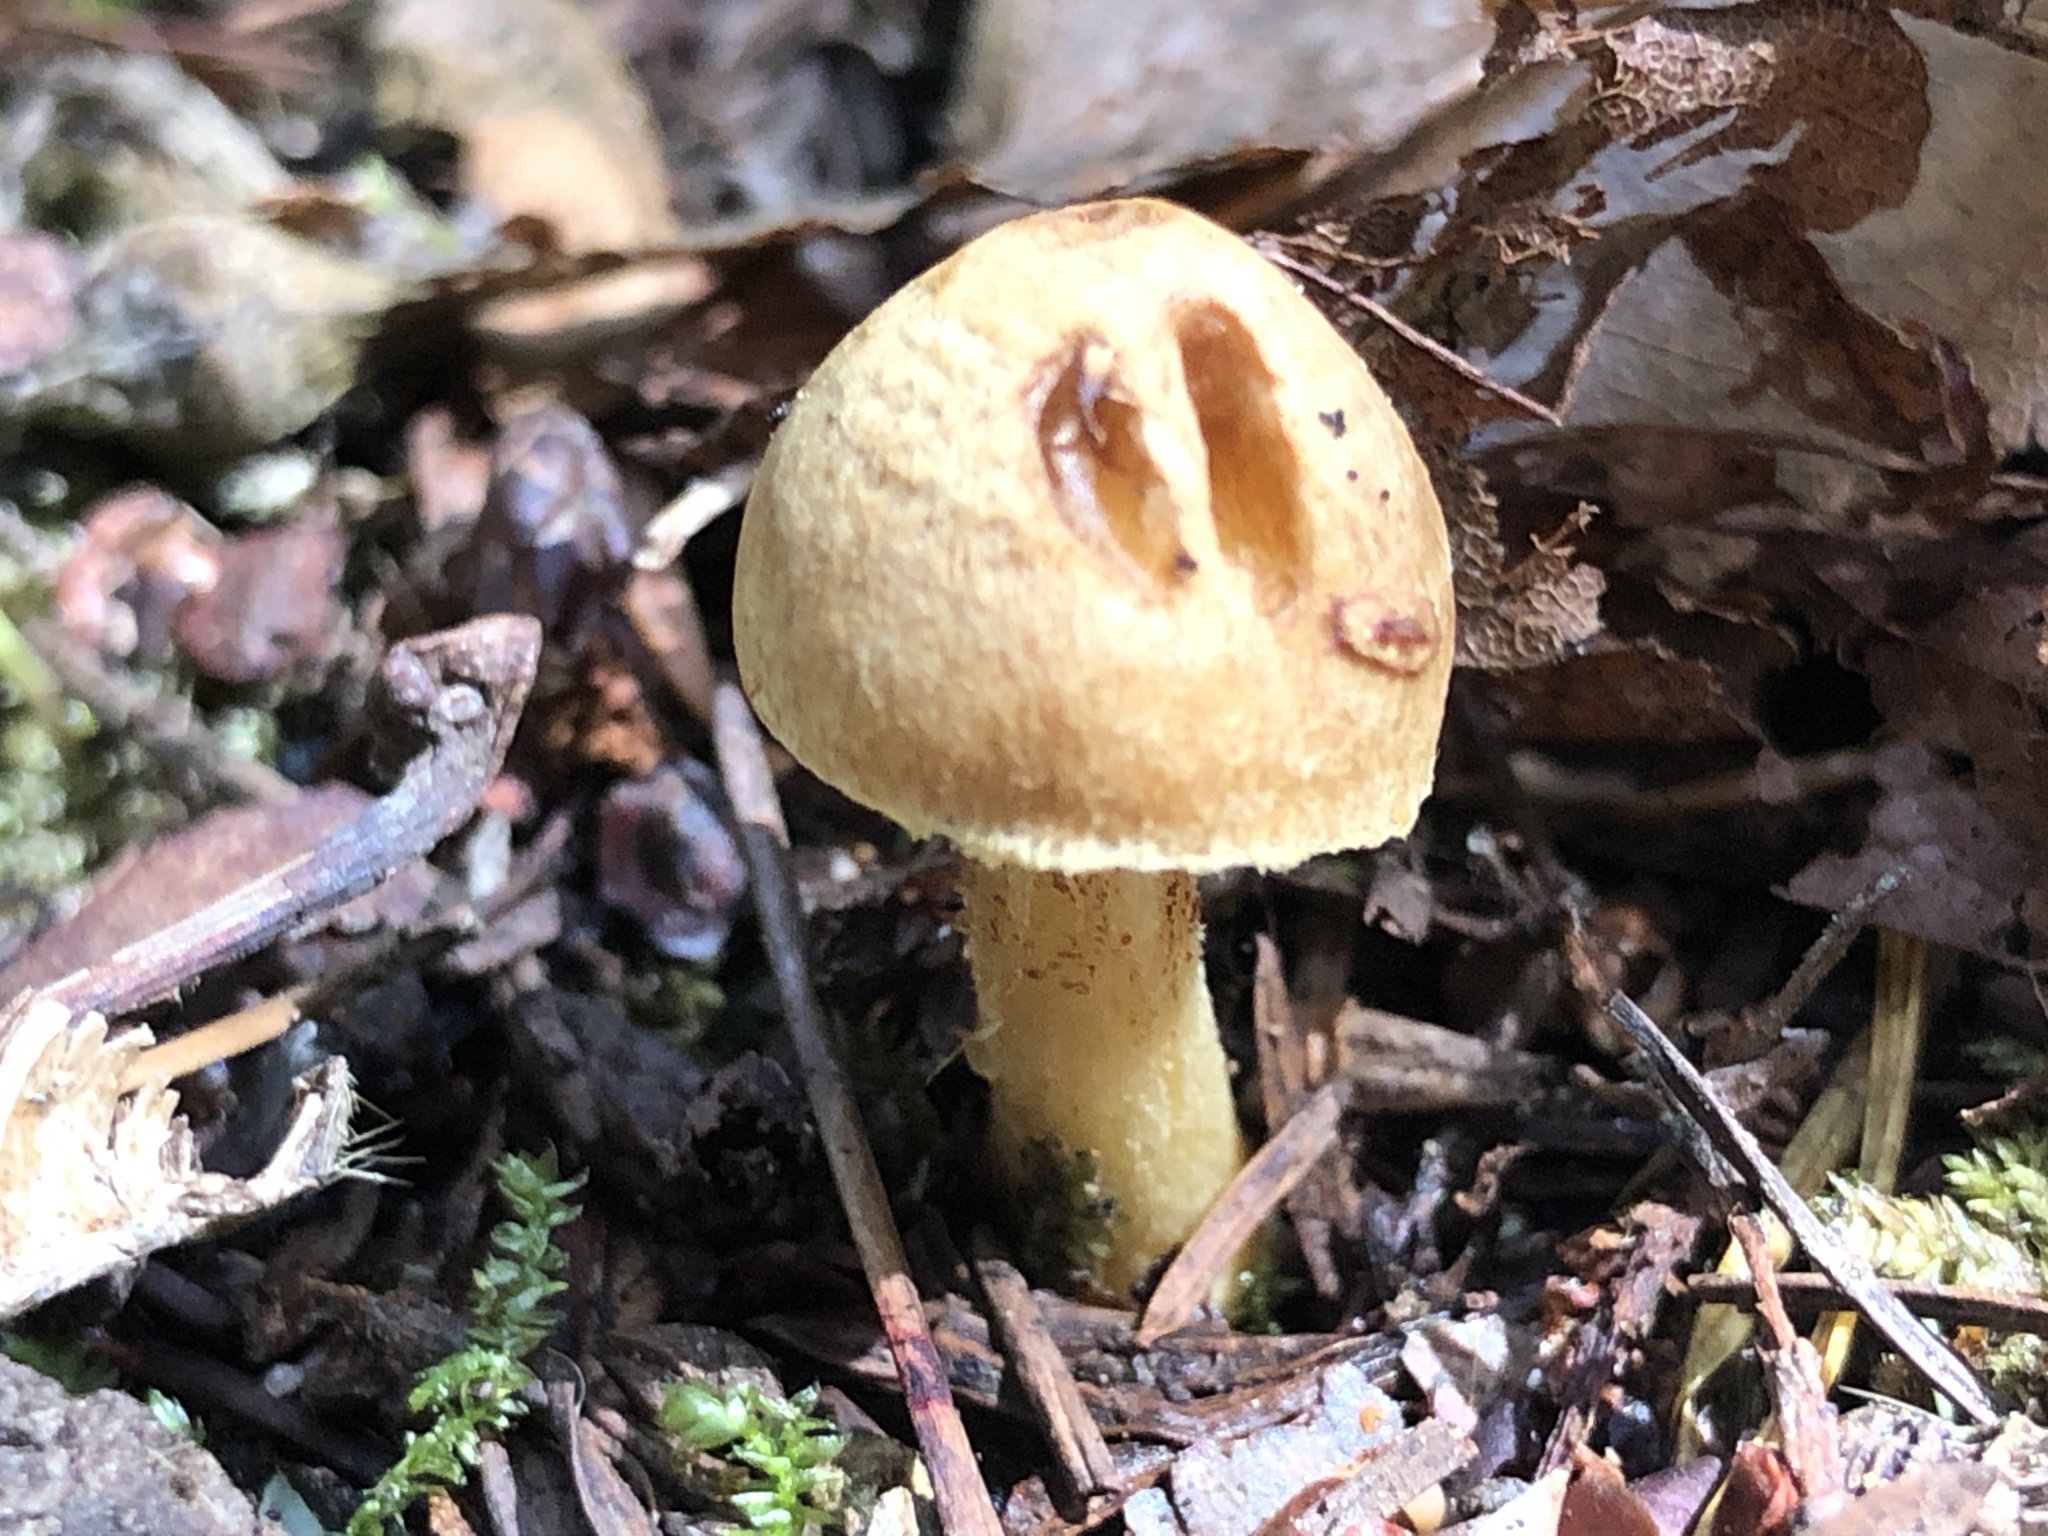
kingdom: Fungi
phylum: Basidiomycota
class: Agaricomycetes
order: Agaricales
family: Inocybaceae
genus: Inocybe
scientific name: Inocybe mycenoides
